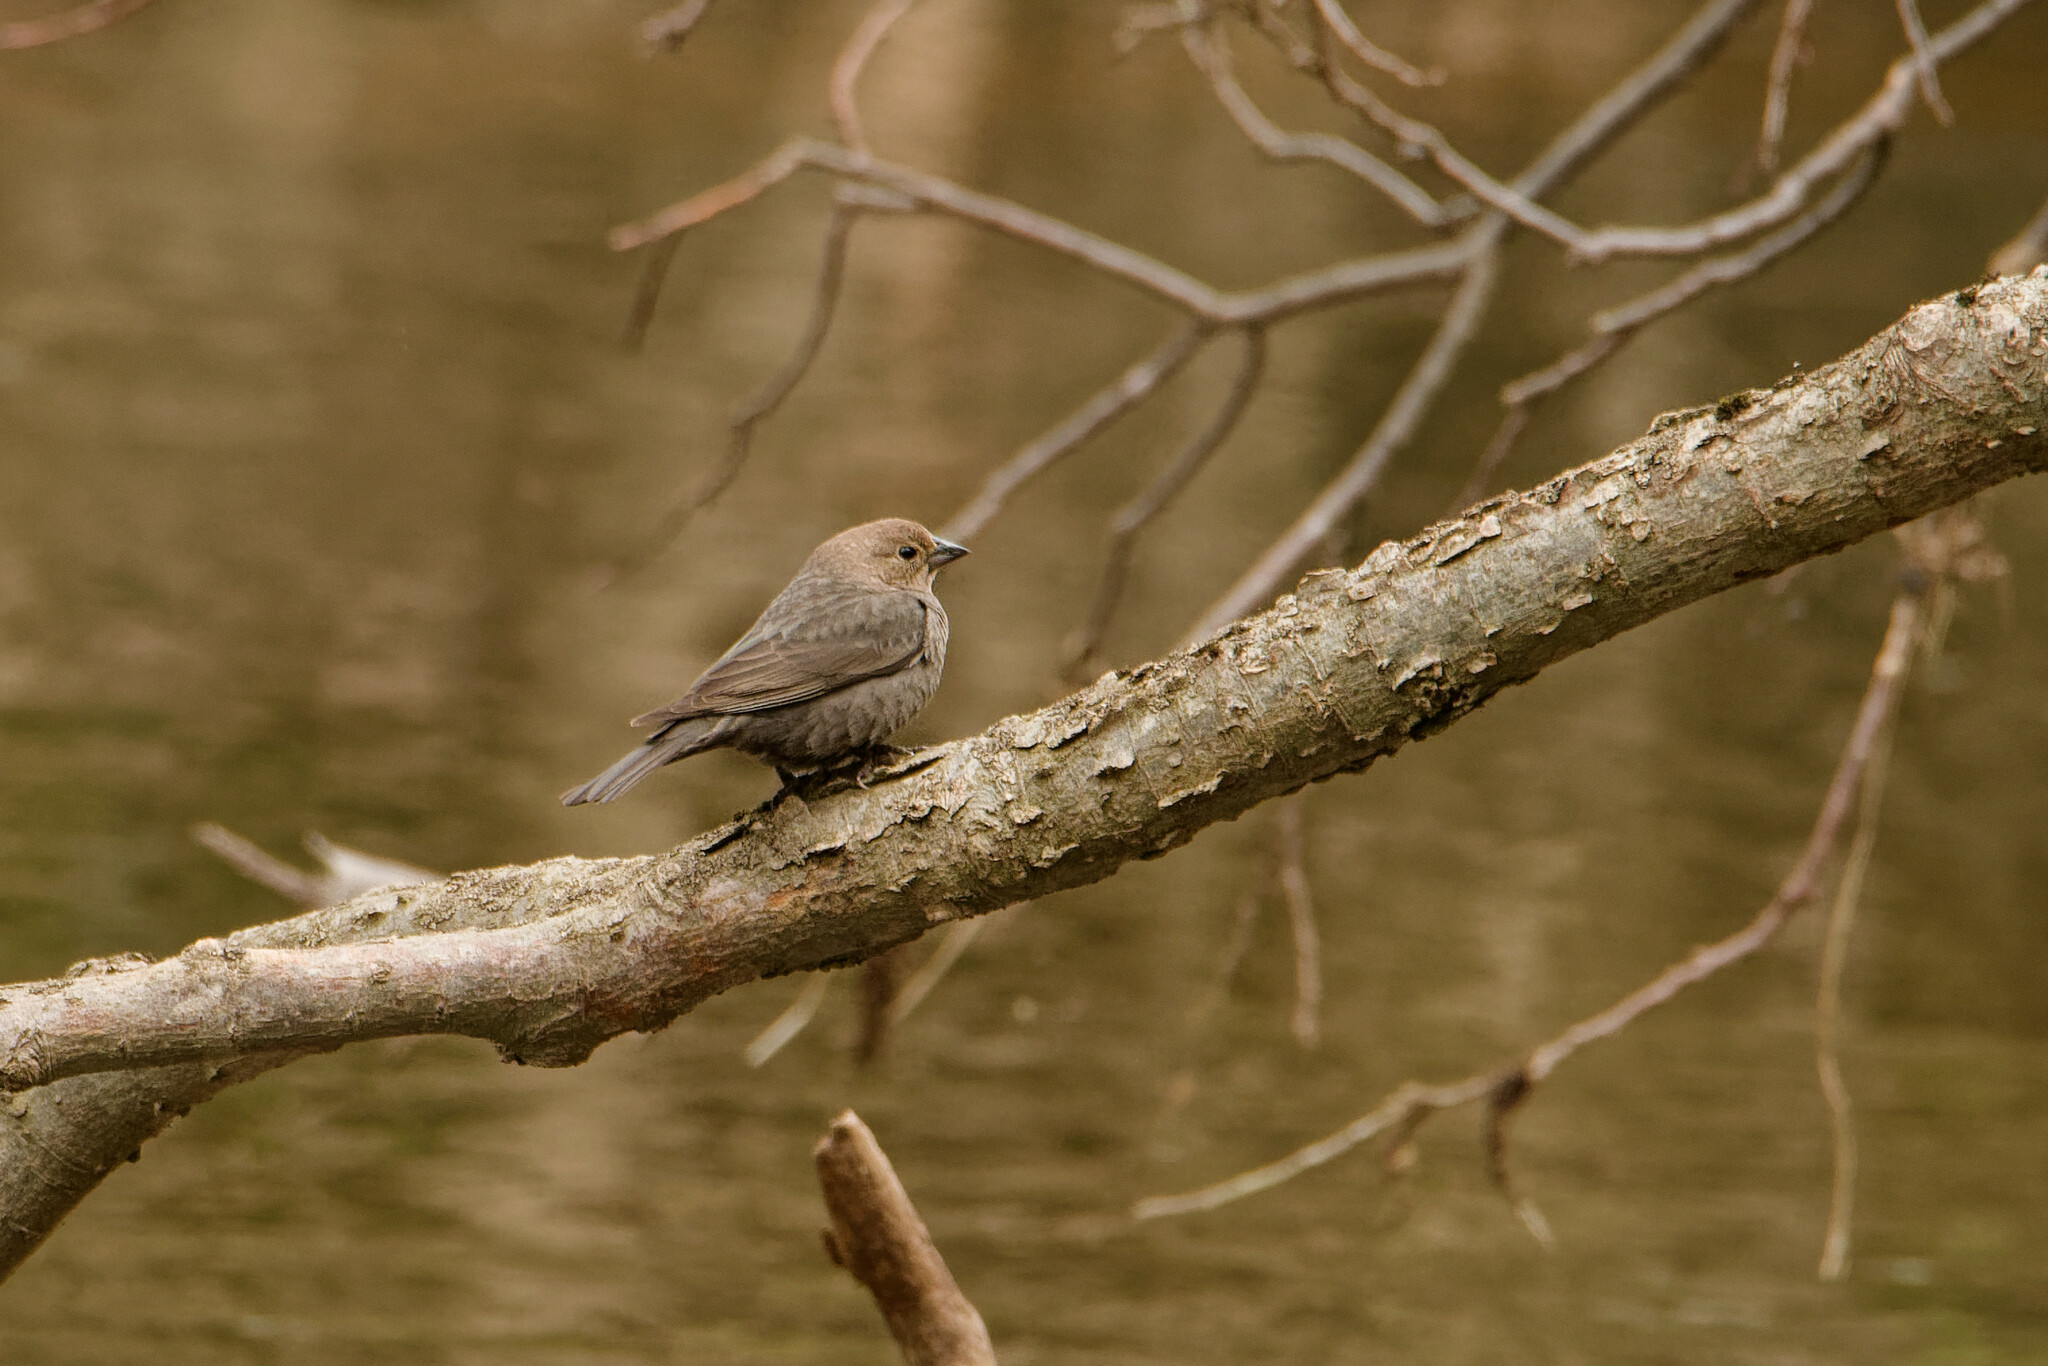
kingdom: Animalia
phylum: Chordata
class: Aves
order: Passeriformes
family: Icteridae
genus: Molothrus
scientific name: Molothrus ater
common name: Brown-headed cowbird
